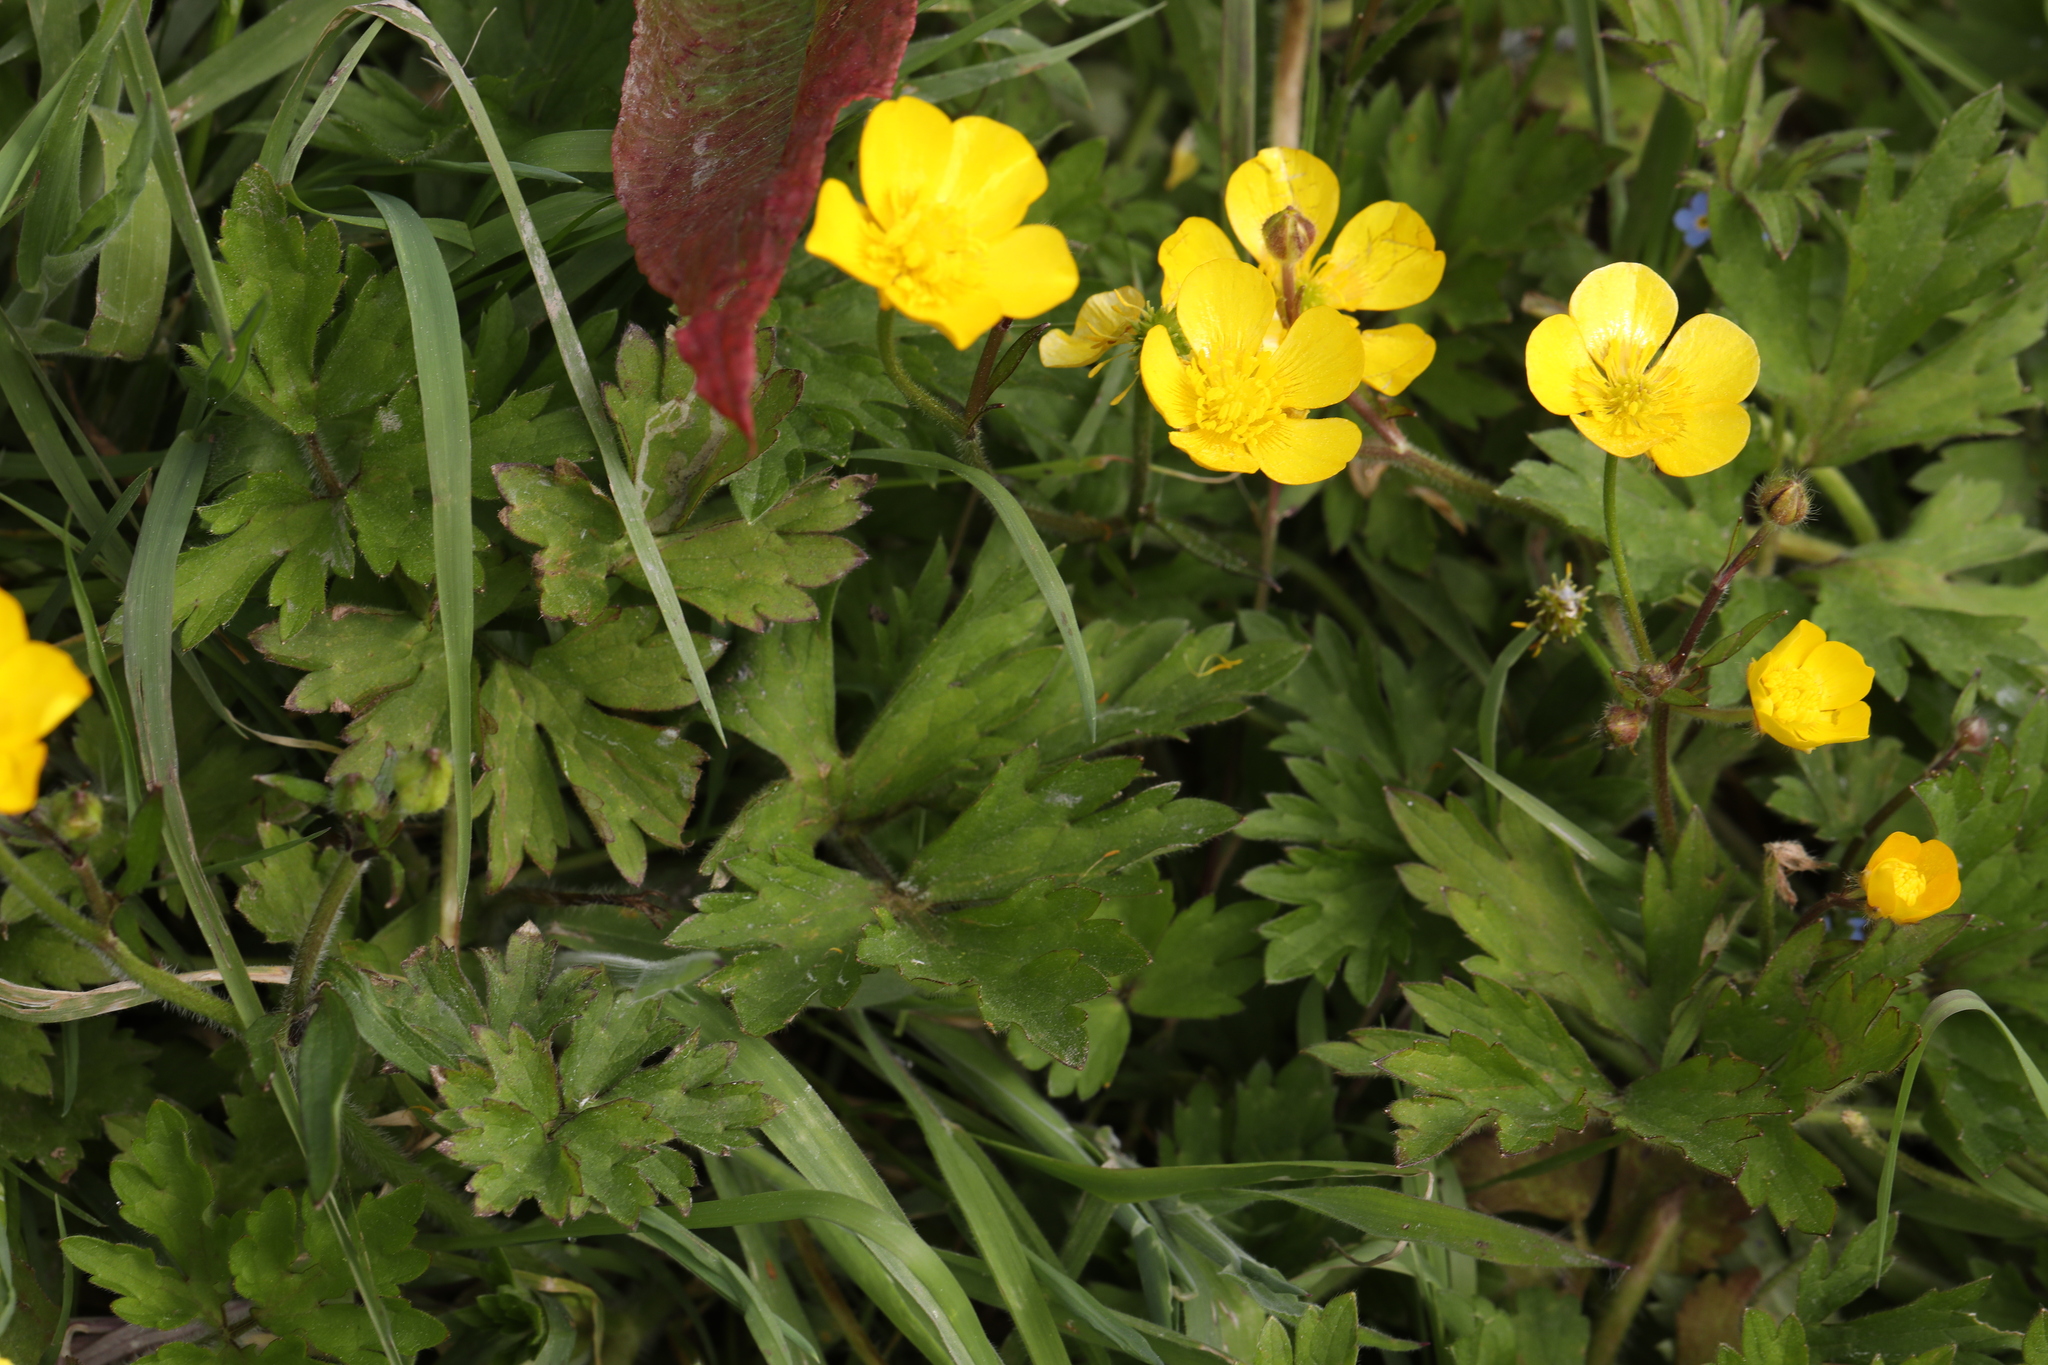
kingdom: Plantae
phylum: Tracheophyta
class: Magnoliopsida
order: Ranunculales
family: Ranunculaceae
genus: Ranunculus
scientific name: Ranunculus repens
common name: Creeping buttercup
